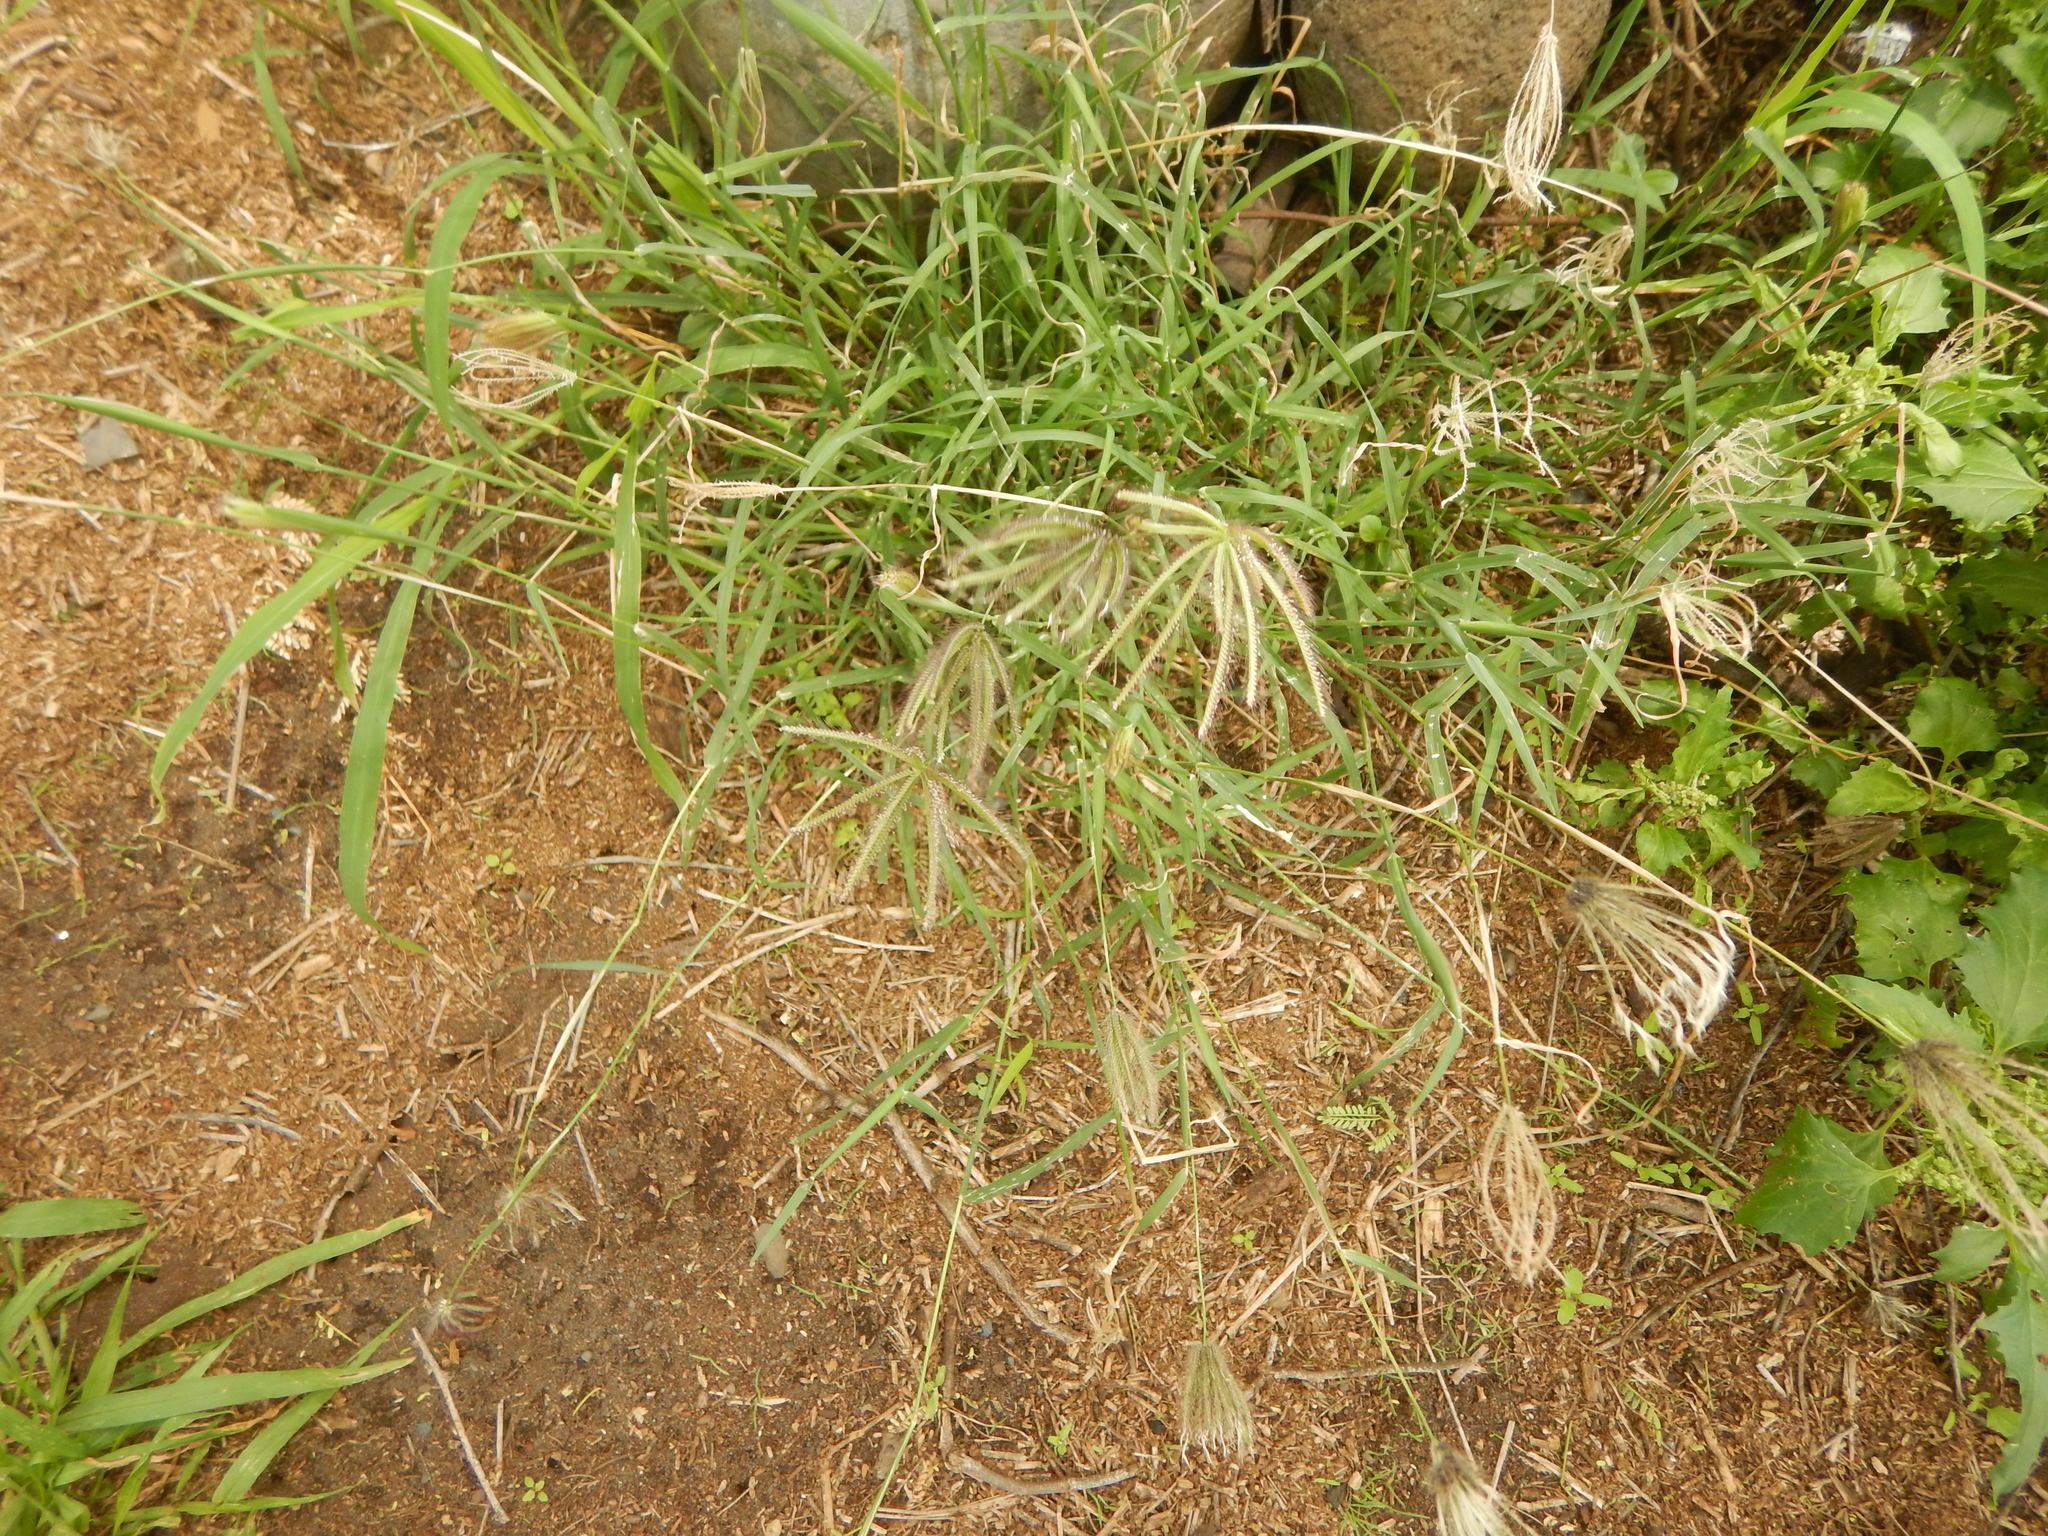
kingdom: Plantae
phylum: Tracheophyta
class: Liliopsida
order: Poales
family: Poaceae
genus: Chloris
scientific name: Chloris barbata
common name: Swollen fingergrass
